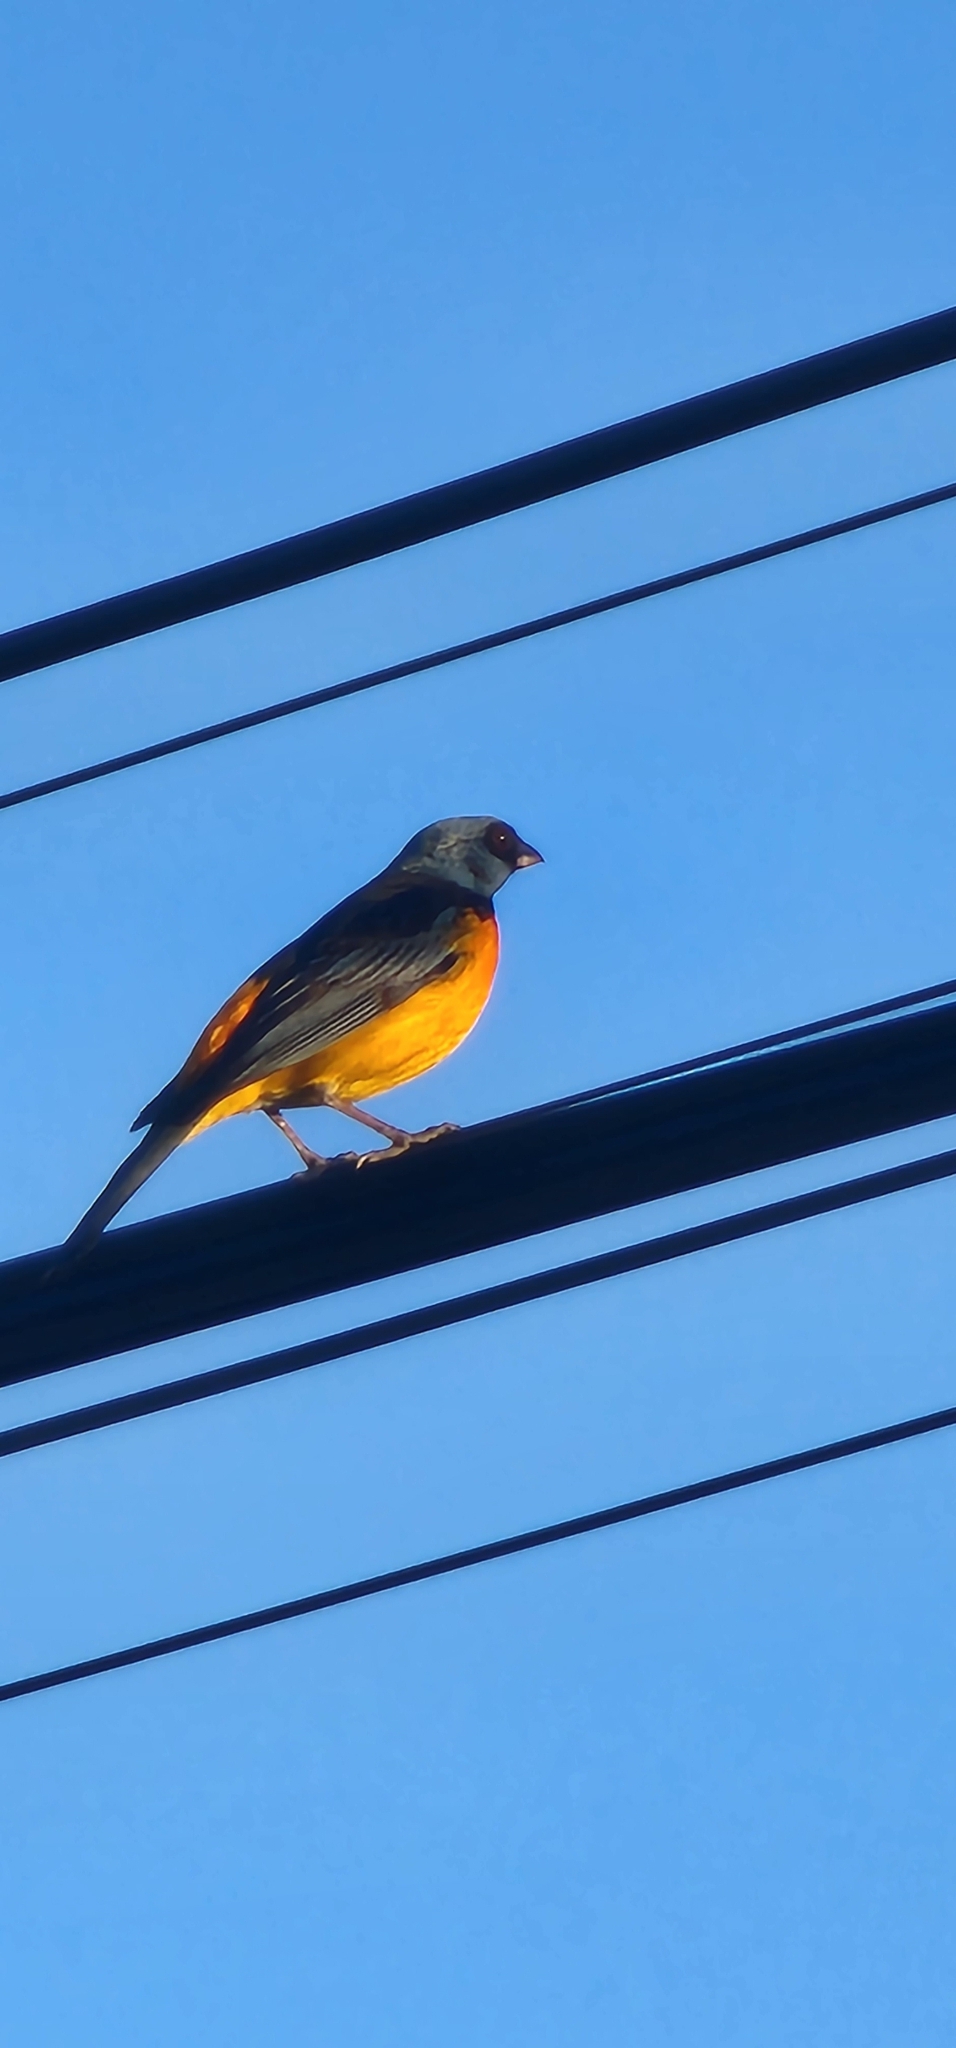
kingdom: Animalia
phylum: Chordata
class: Aves
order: Passeriformes
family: Thraupidae
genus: Rauenia
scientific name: Rauenia bonariensis
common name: Blue-and-yellow tanager
